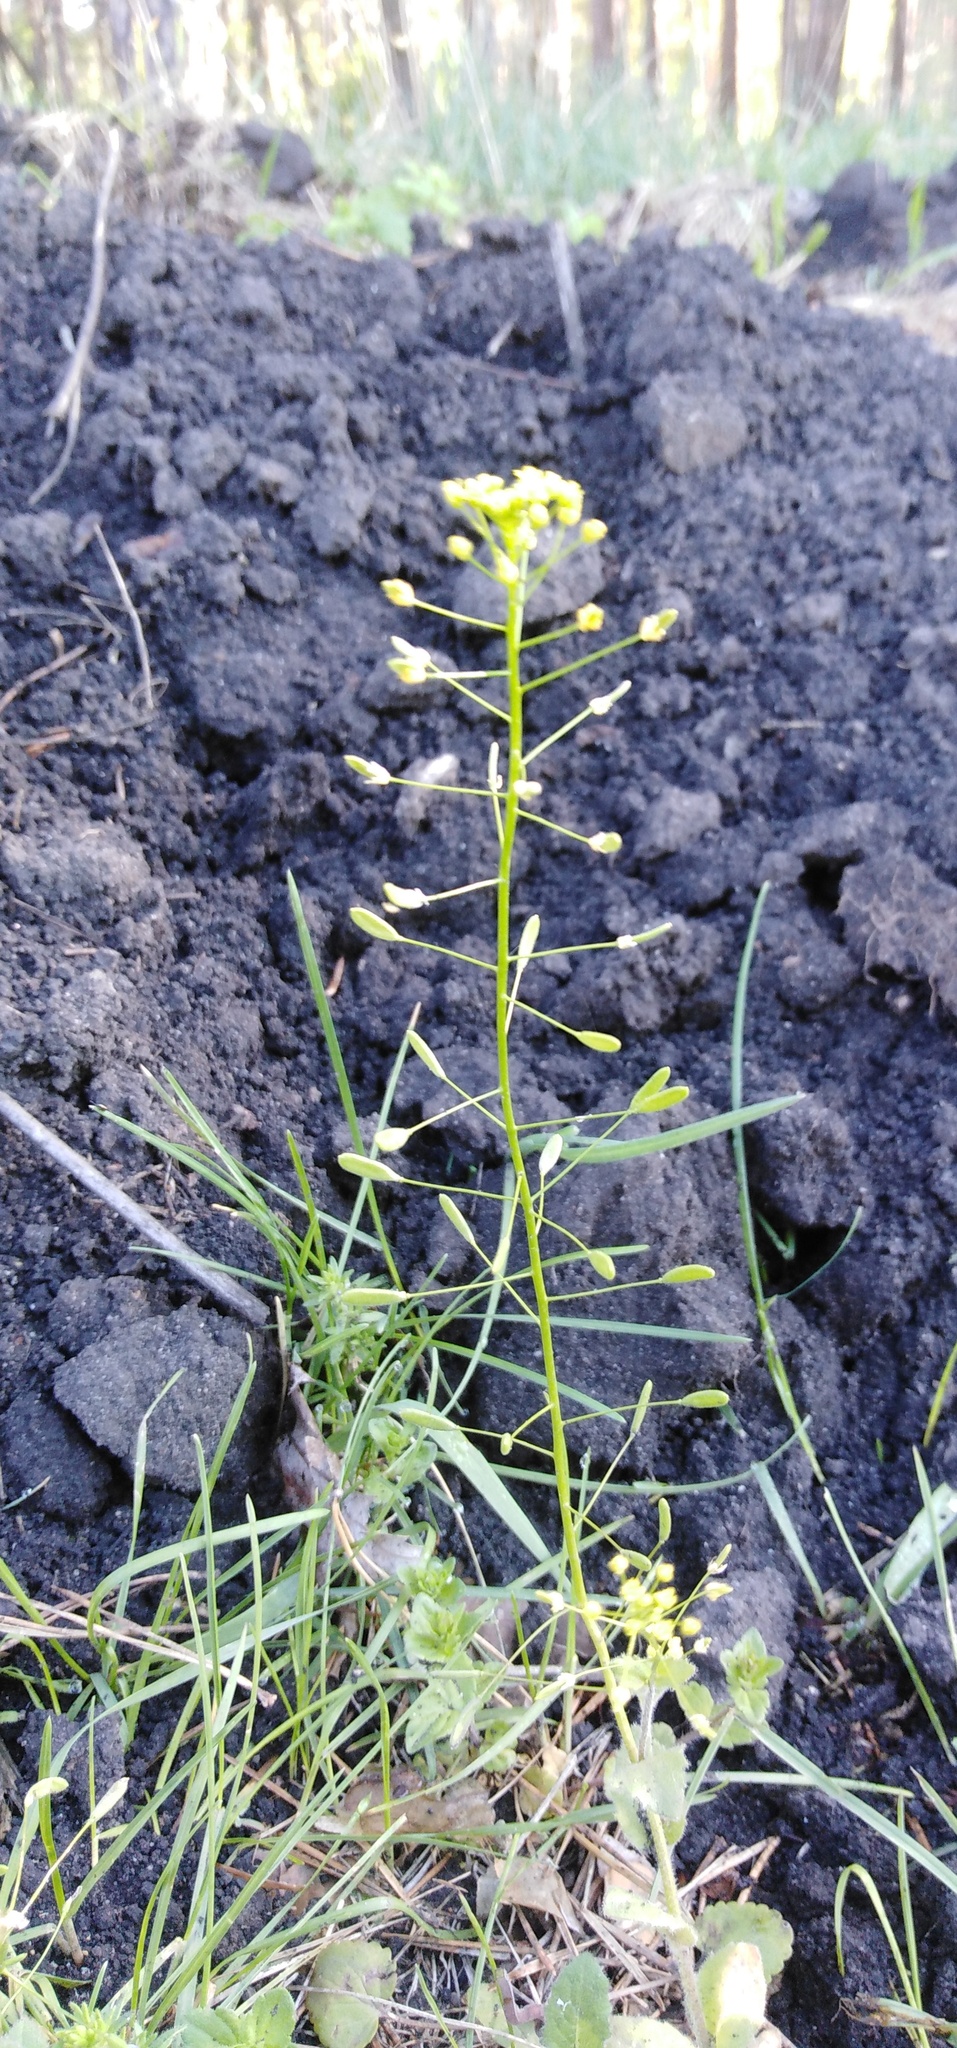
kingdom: Plantae
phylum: Tracheophyta
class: Magnoliopsida
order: Brassicales
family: Brassicaceae
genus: Draba
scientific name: Draba nemorosa
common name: Wood whitlow-grass
